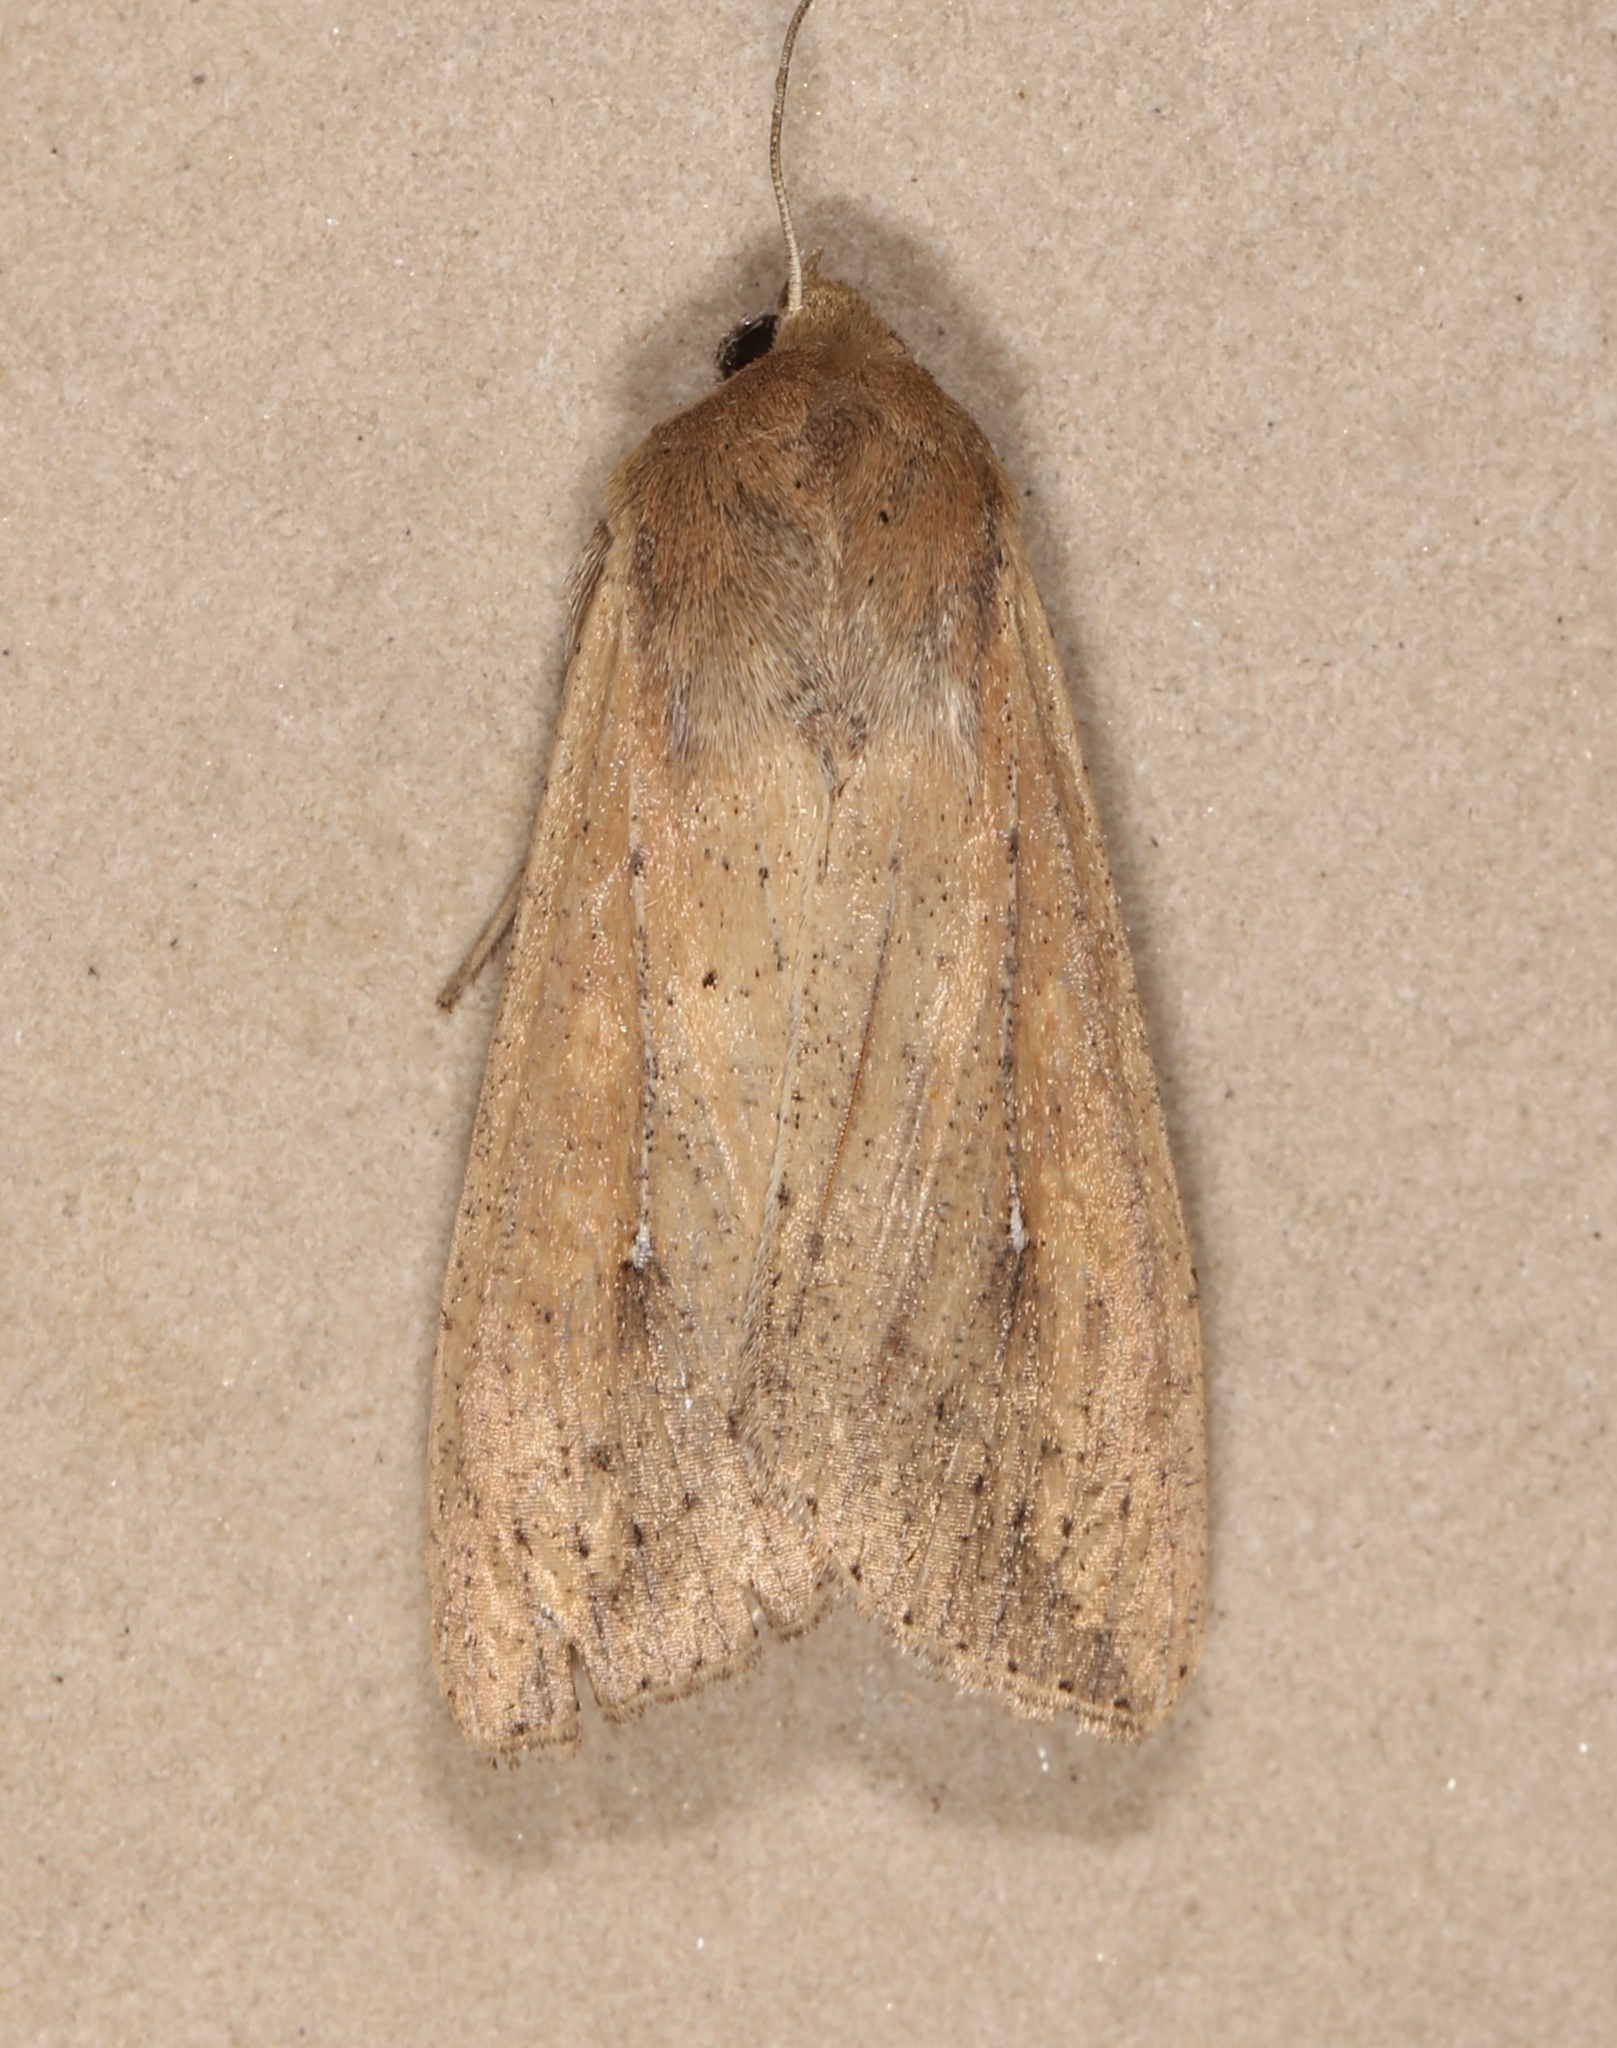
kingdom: Animalia
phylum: Arthropoda
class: Insecta
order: Lepidoptera
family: Noctuidae
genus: Mythimna
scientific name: Mythimna unipuncta
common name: White-speck
